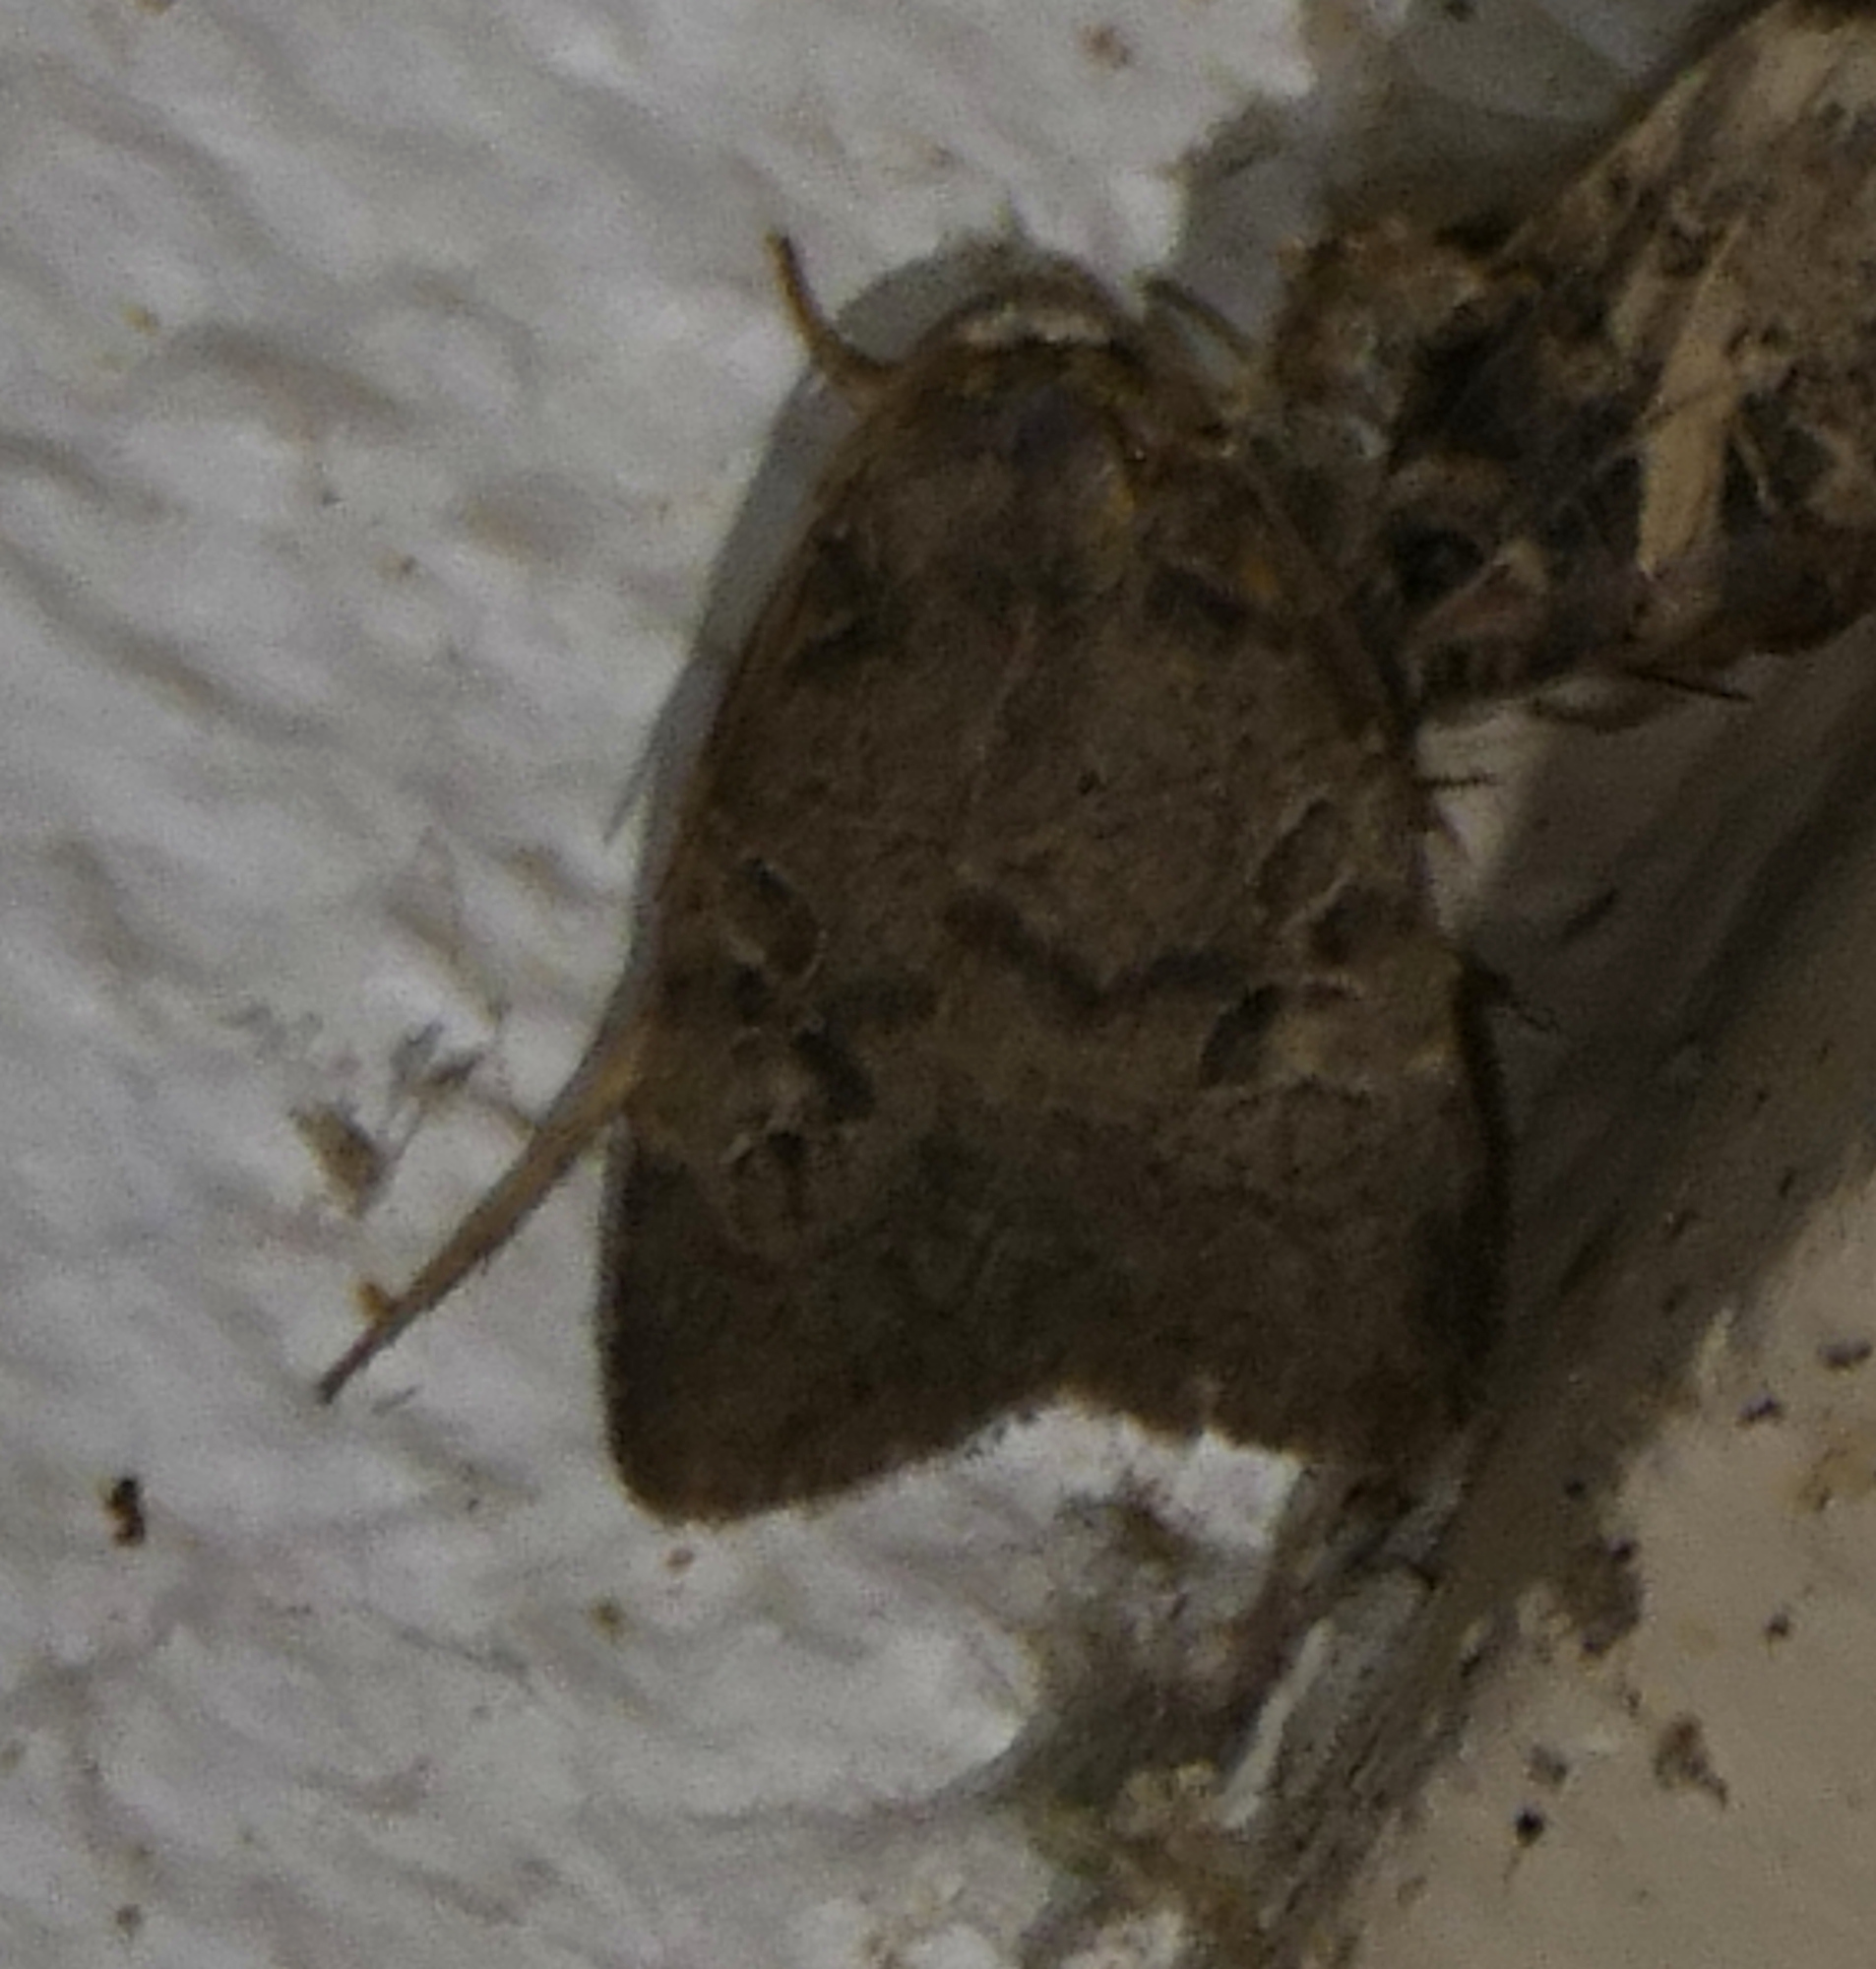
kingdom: Animalia
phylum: Arthropoda
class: Insecta
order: Lepidoptera
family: Noctuidae
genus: Orthodes
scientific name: Orthodes furtiva
